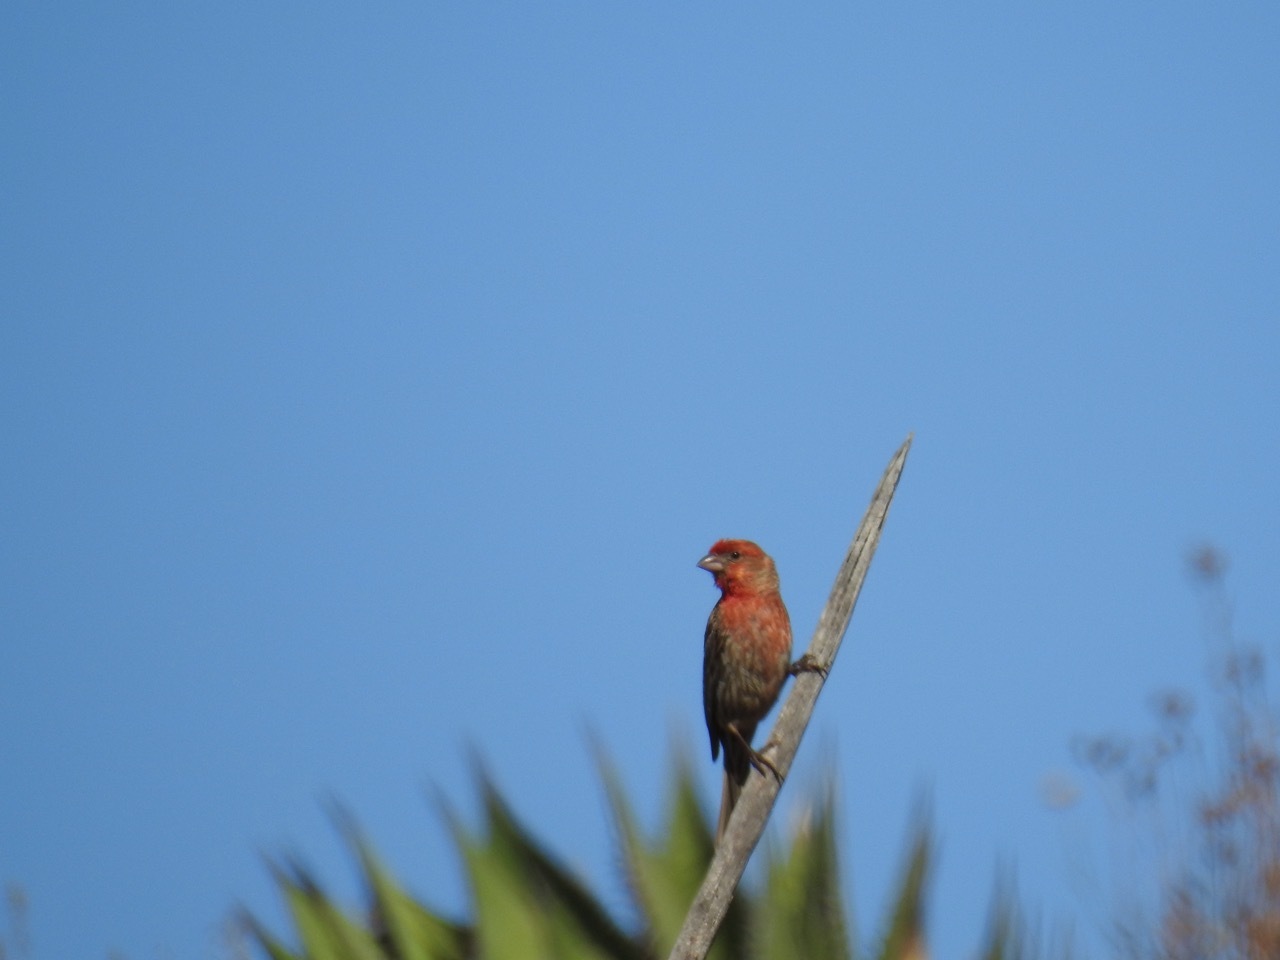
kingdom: Animalia
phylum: Chordata
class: Aves
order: Passeriformes
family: Fringillidae
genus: Haemorhous
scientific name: Haemorhous mexicanus
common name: House finch
